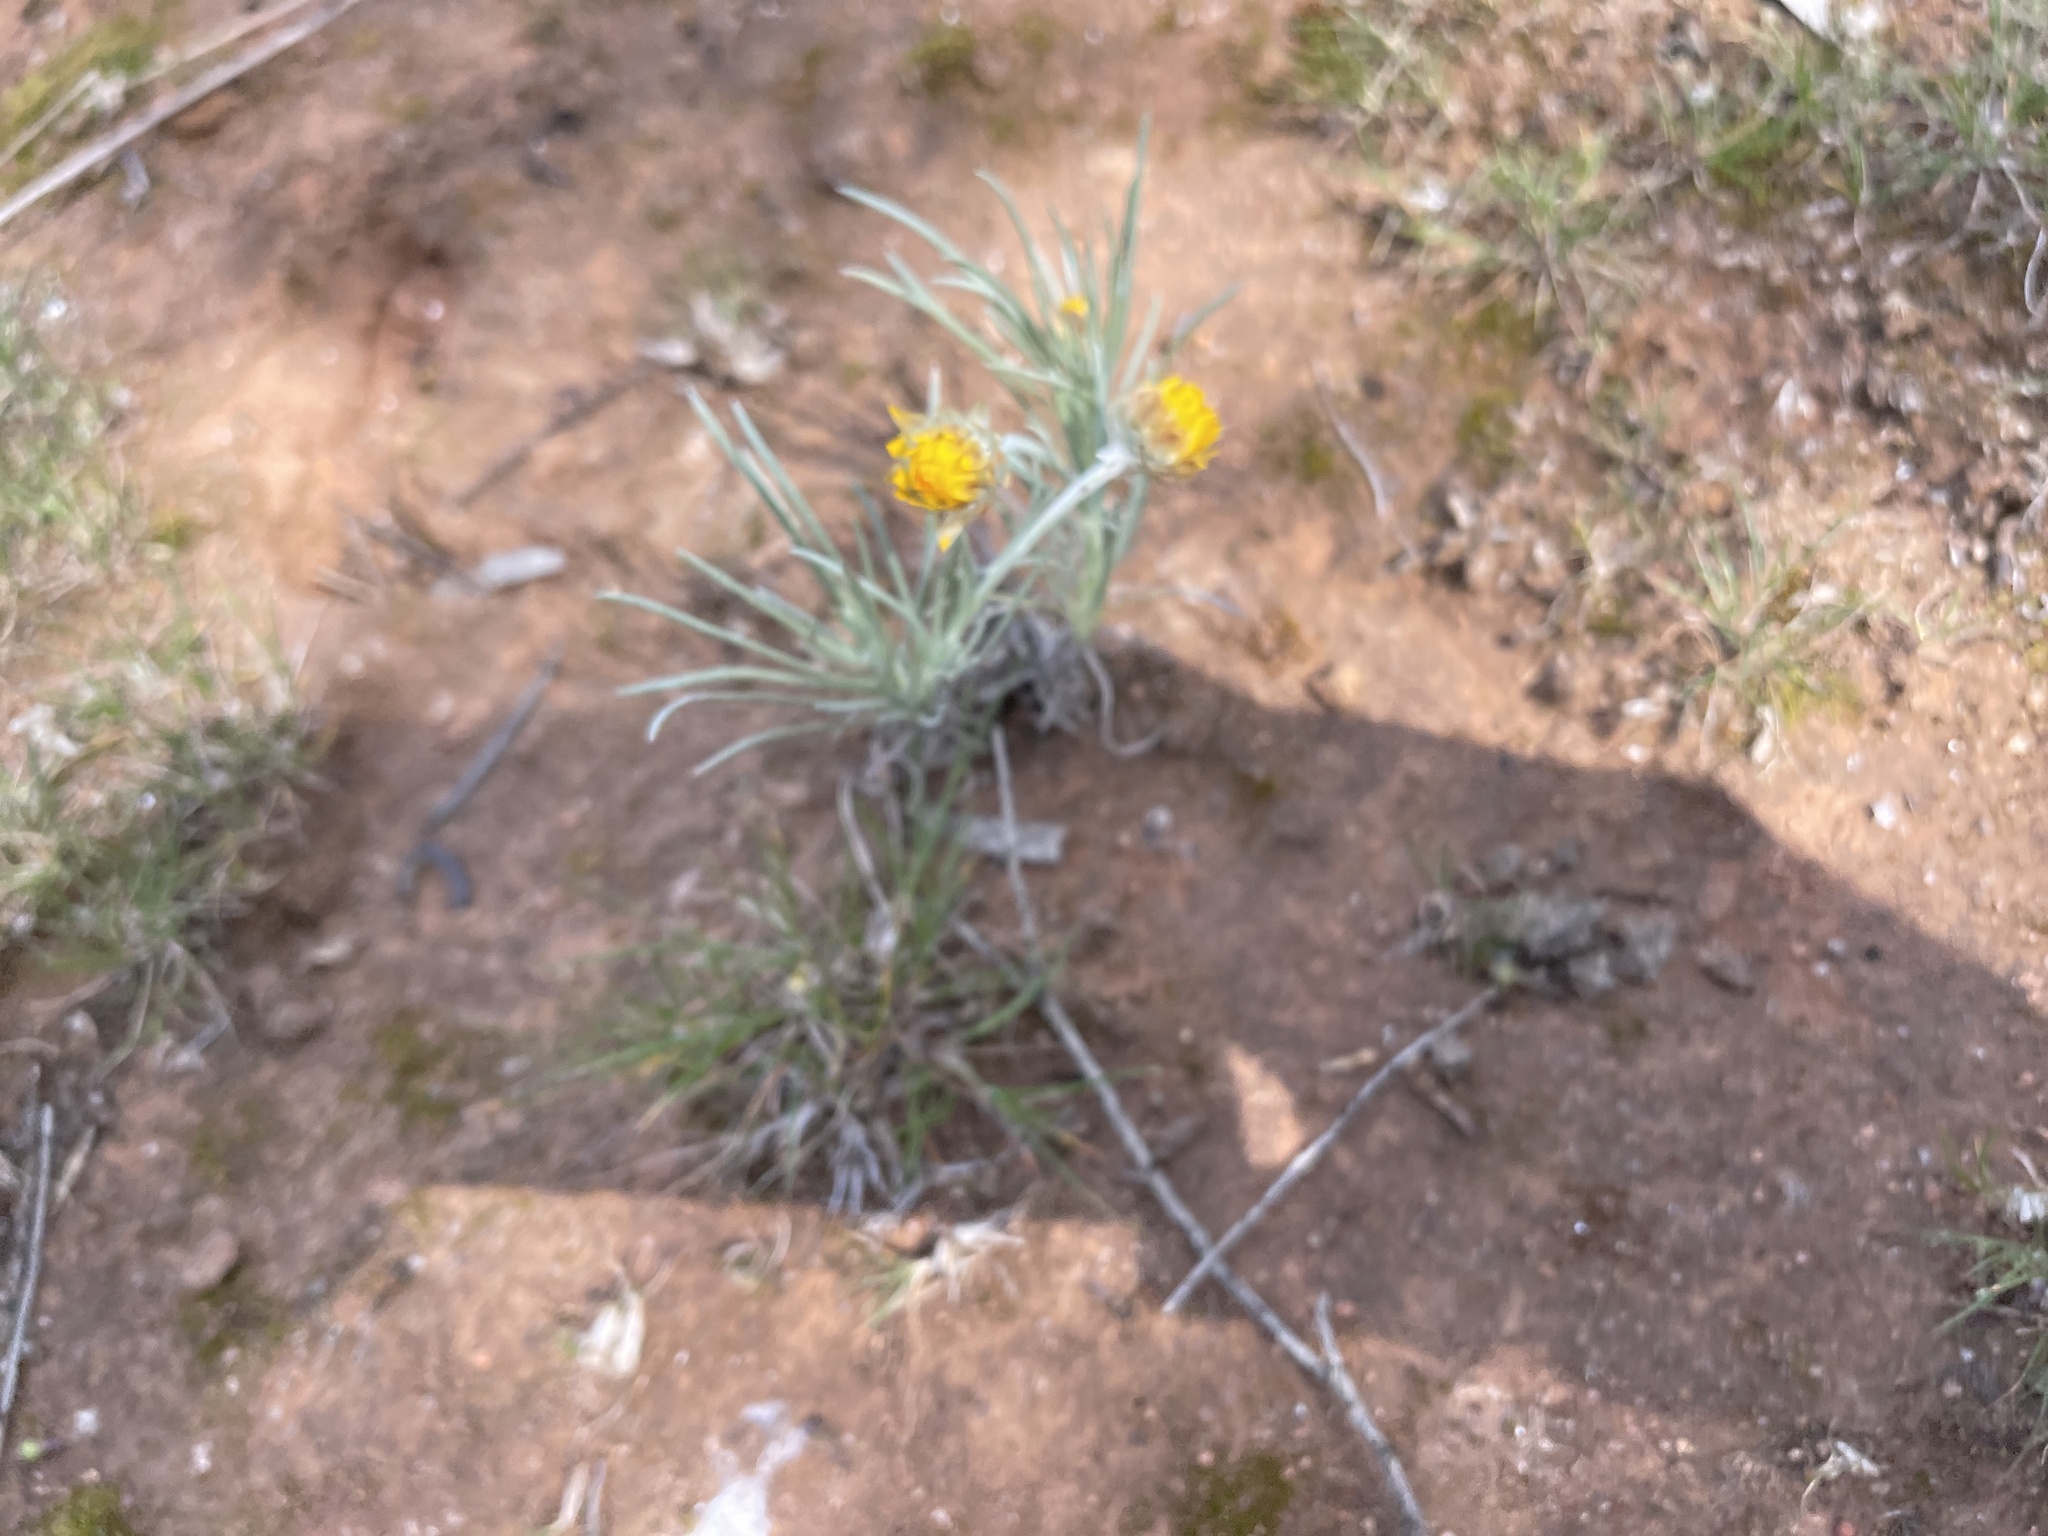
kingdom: Plantae
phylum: Tracheophyta
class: Magnoliopsida
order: Asterales
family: Asteraceae
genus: Leucochrysum
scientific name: Leucochrysum albicans
